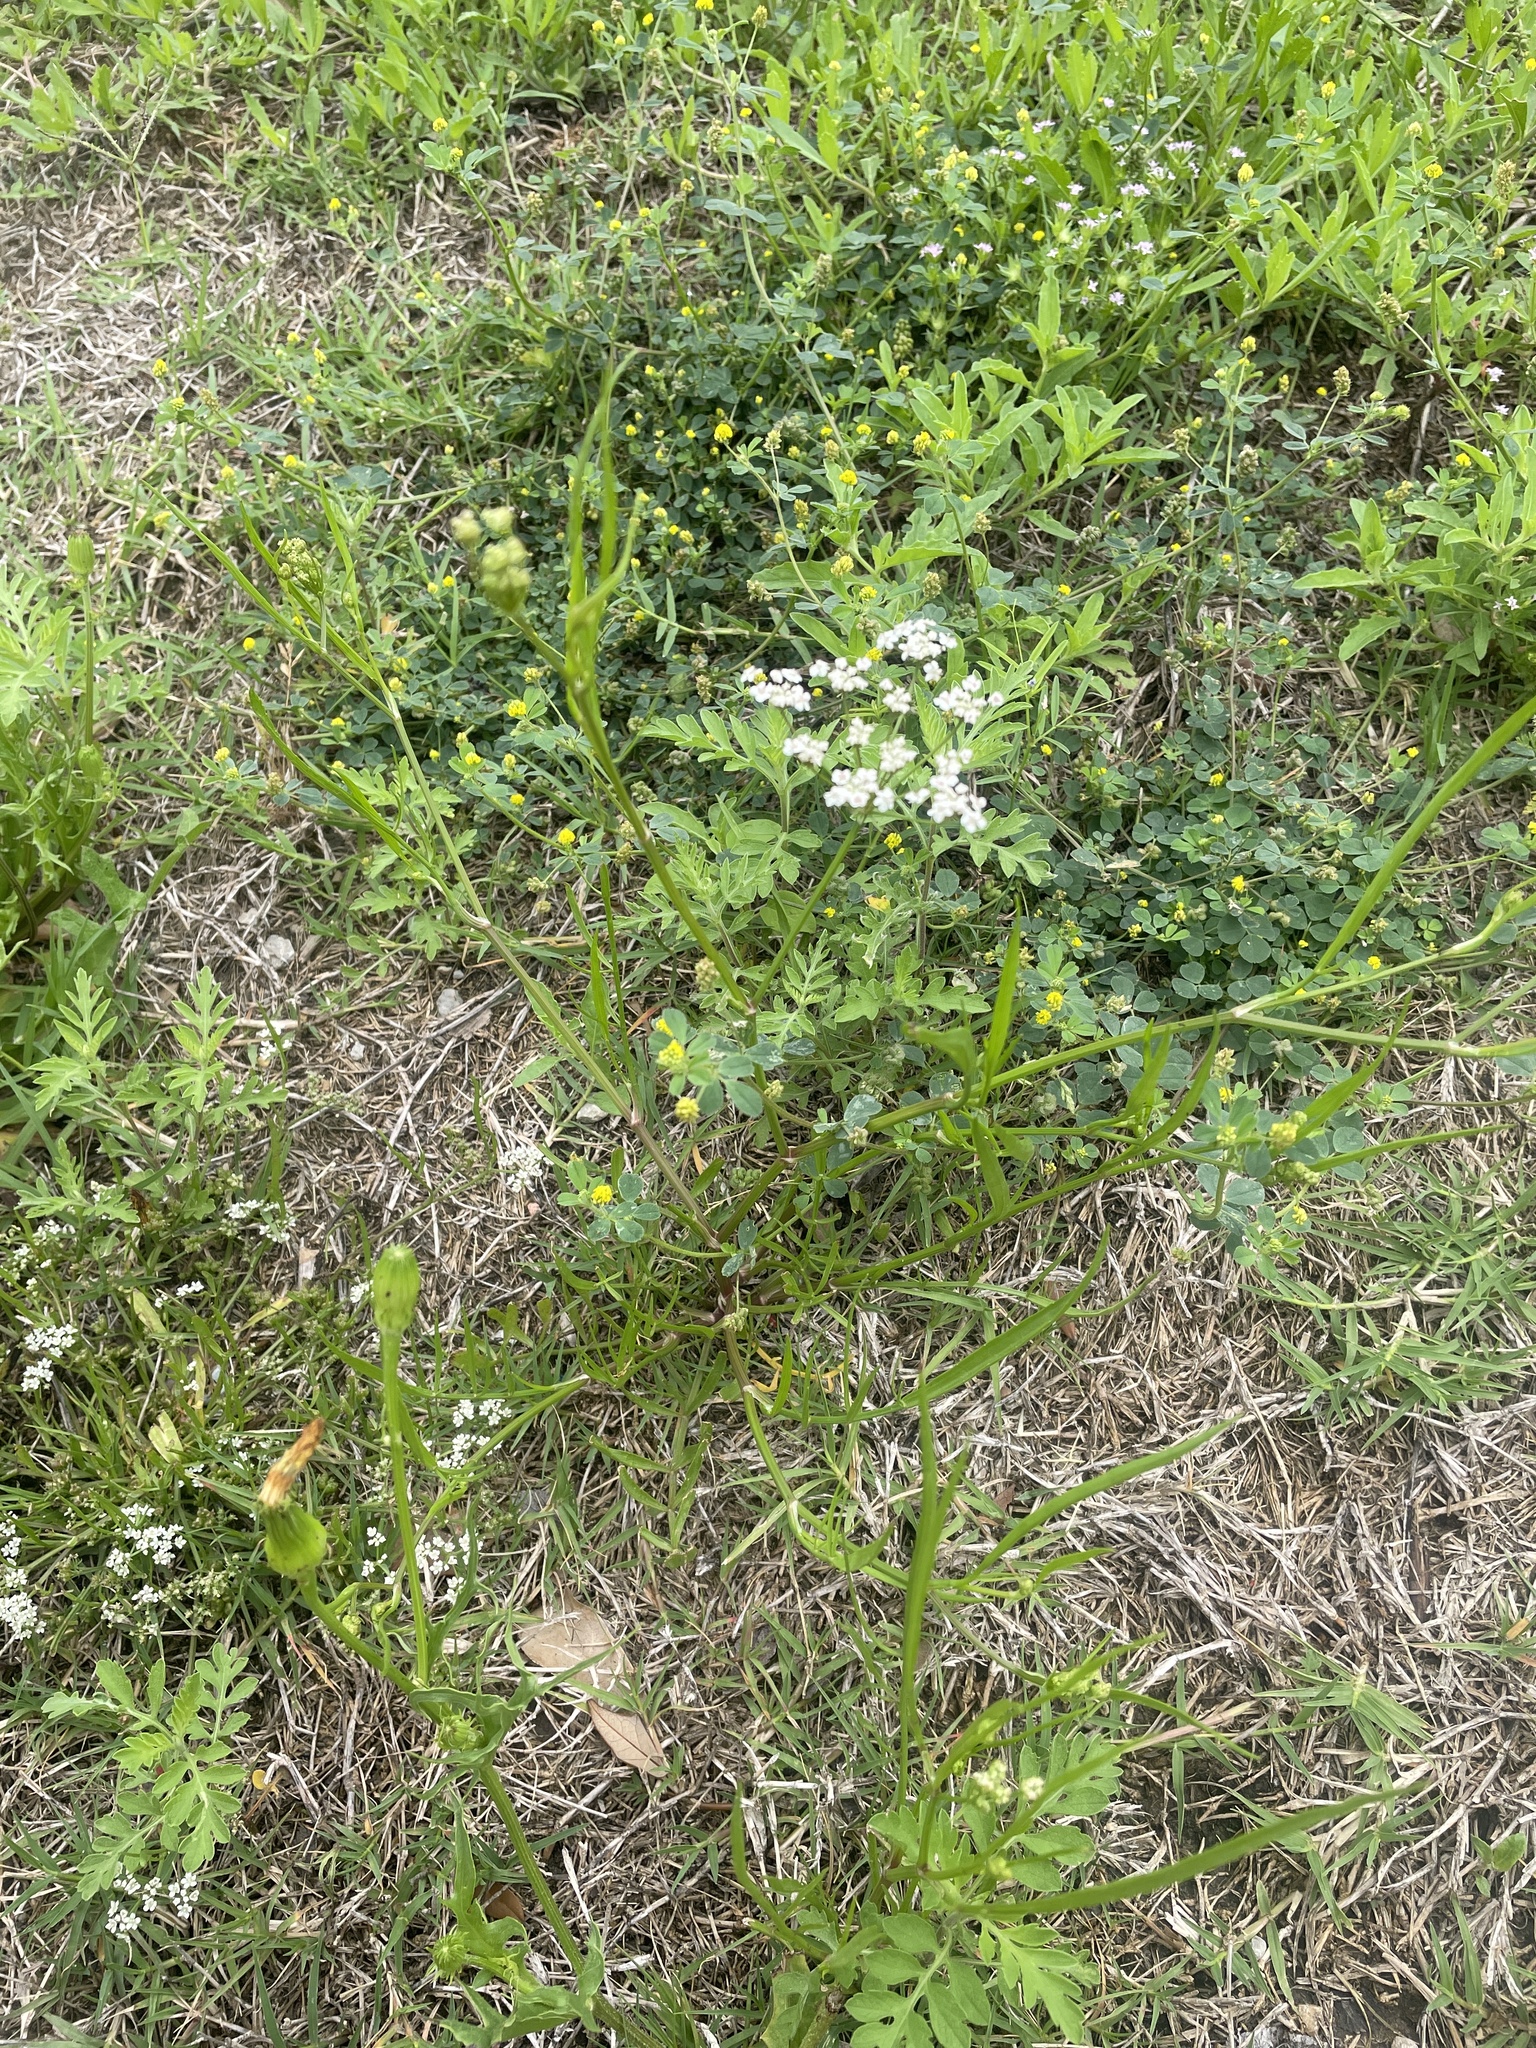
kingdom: Plantae
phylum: Tracheophyta
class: Magnoliopsida
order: Apiales
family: Apiaceae
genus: Limnosciadium
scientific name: Limnosciadium pinnatum
